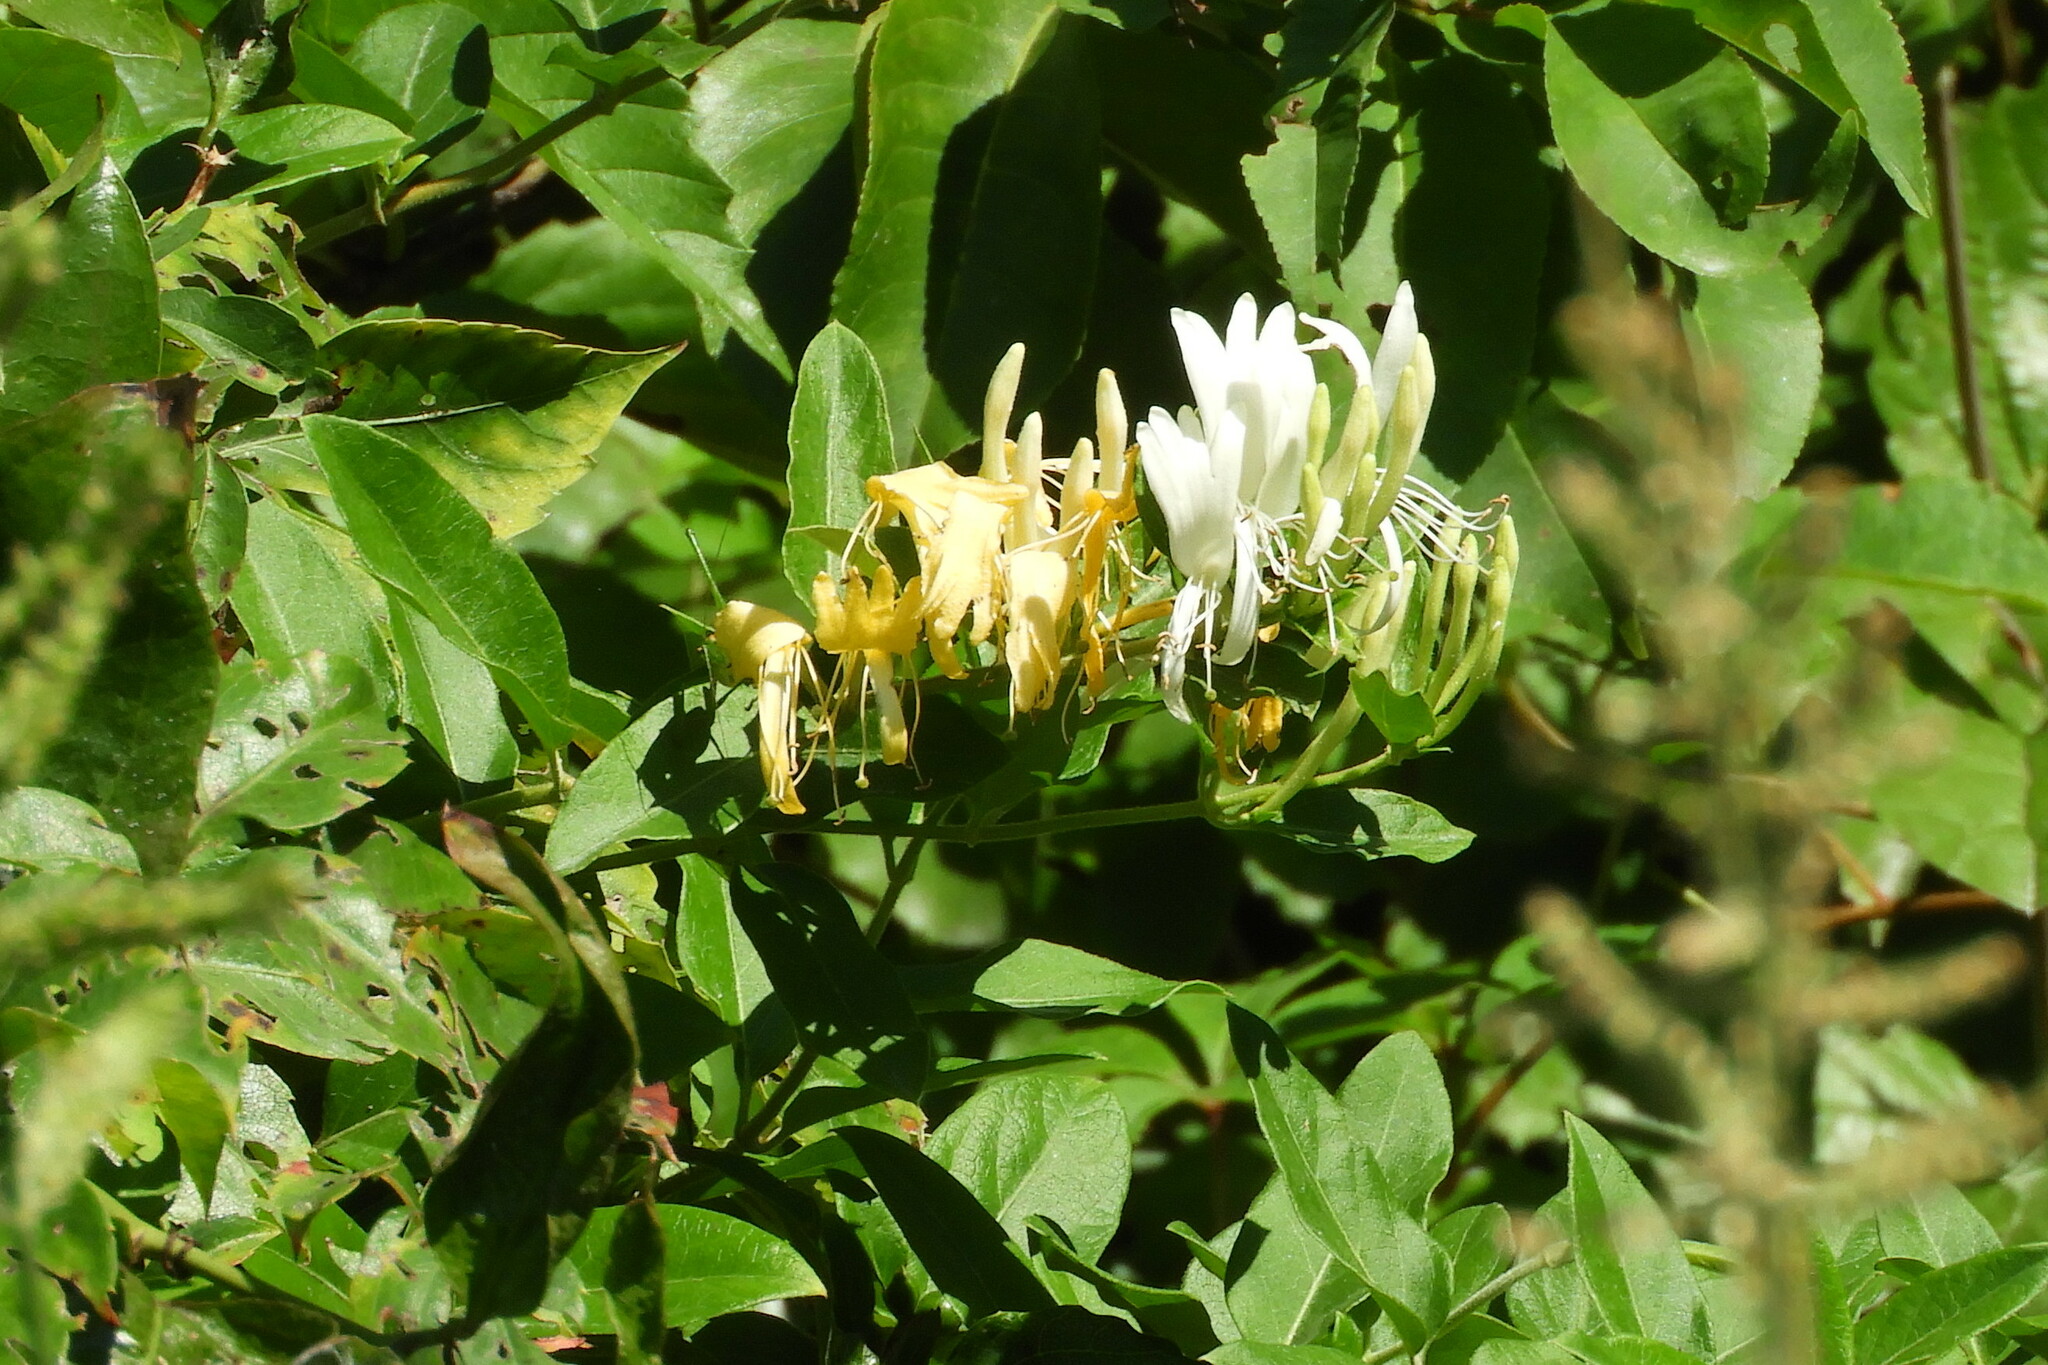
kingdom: Plantae
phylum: Tracheophyta
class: Magnoliopsida
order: Dipsacales
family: Caprifoliaceae
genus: Lonicera
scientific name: Lonicera japonica
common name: Japanese honeysuckle
